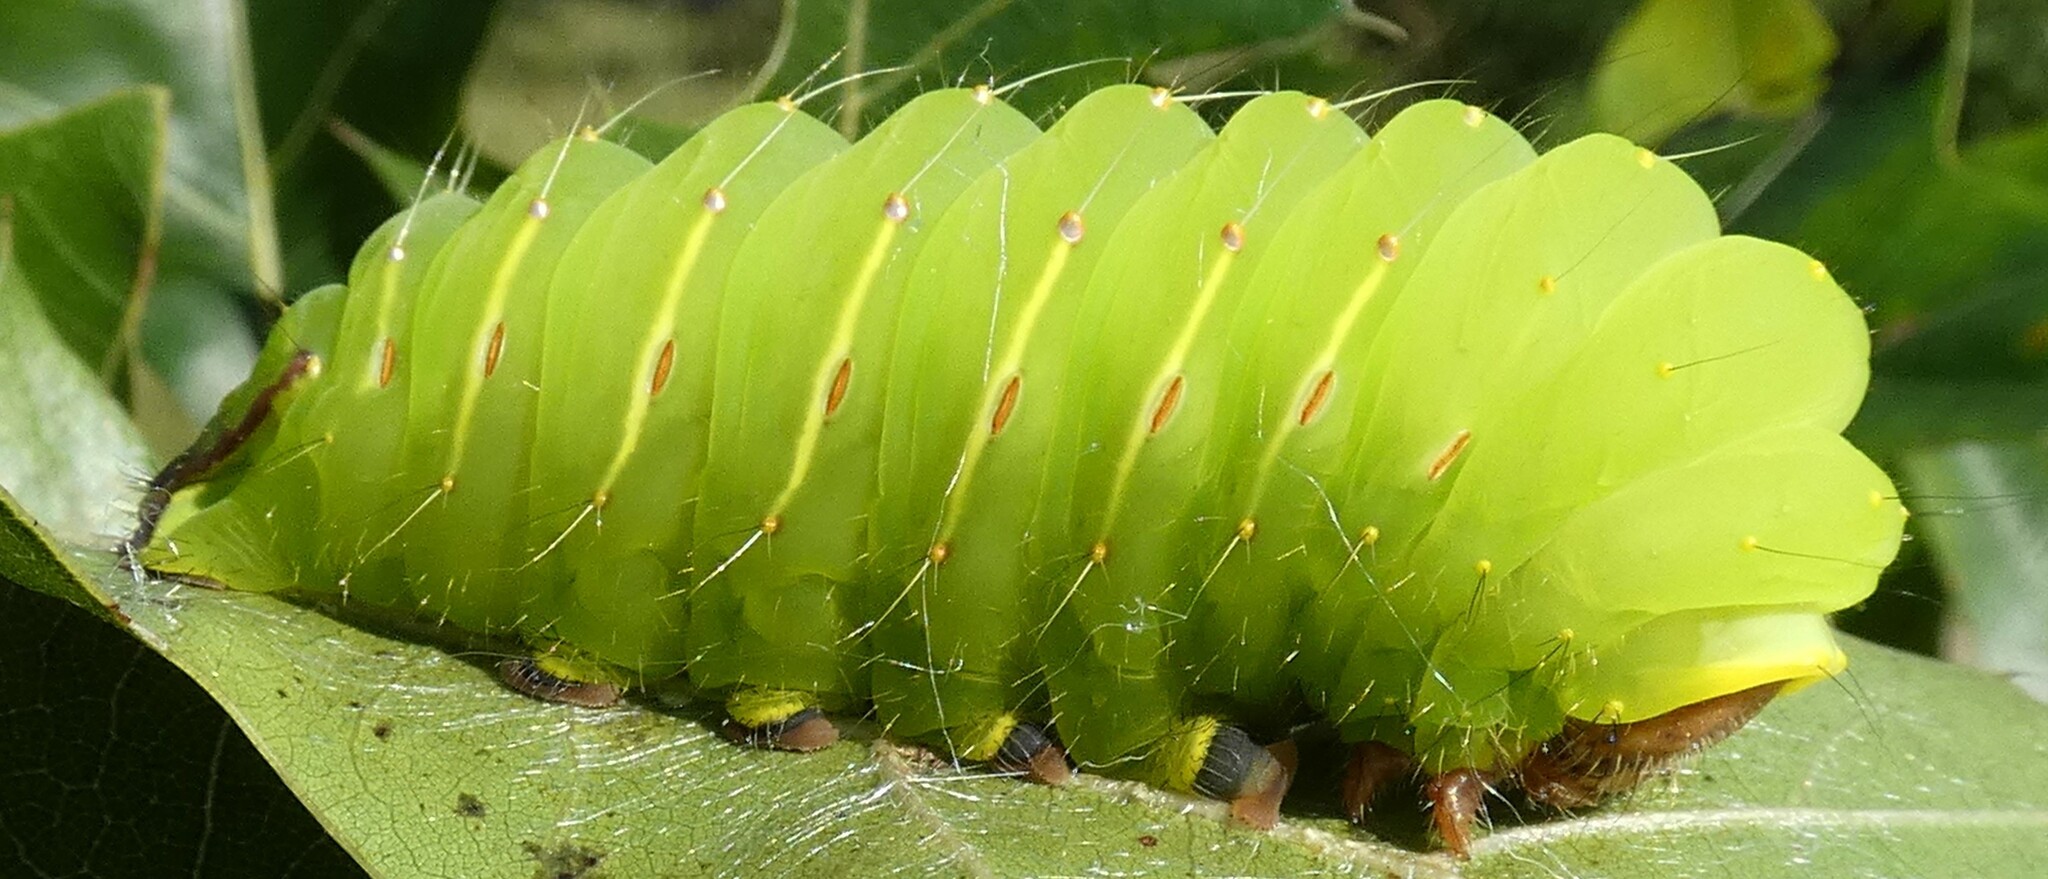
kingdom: Animalia
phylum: Arthropoda
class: Insecta
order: Lepidoptera
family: Saturniidae
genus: Antheraea
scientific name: Antheraea polyphemus
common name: Polyphemus moth
